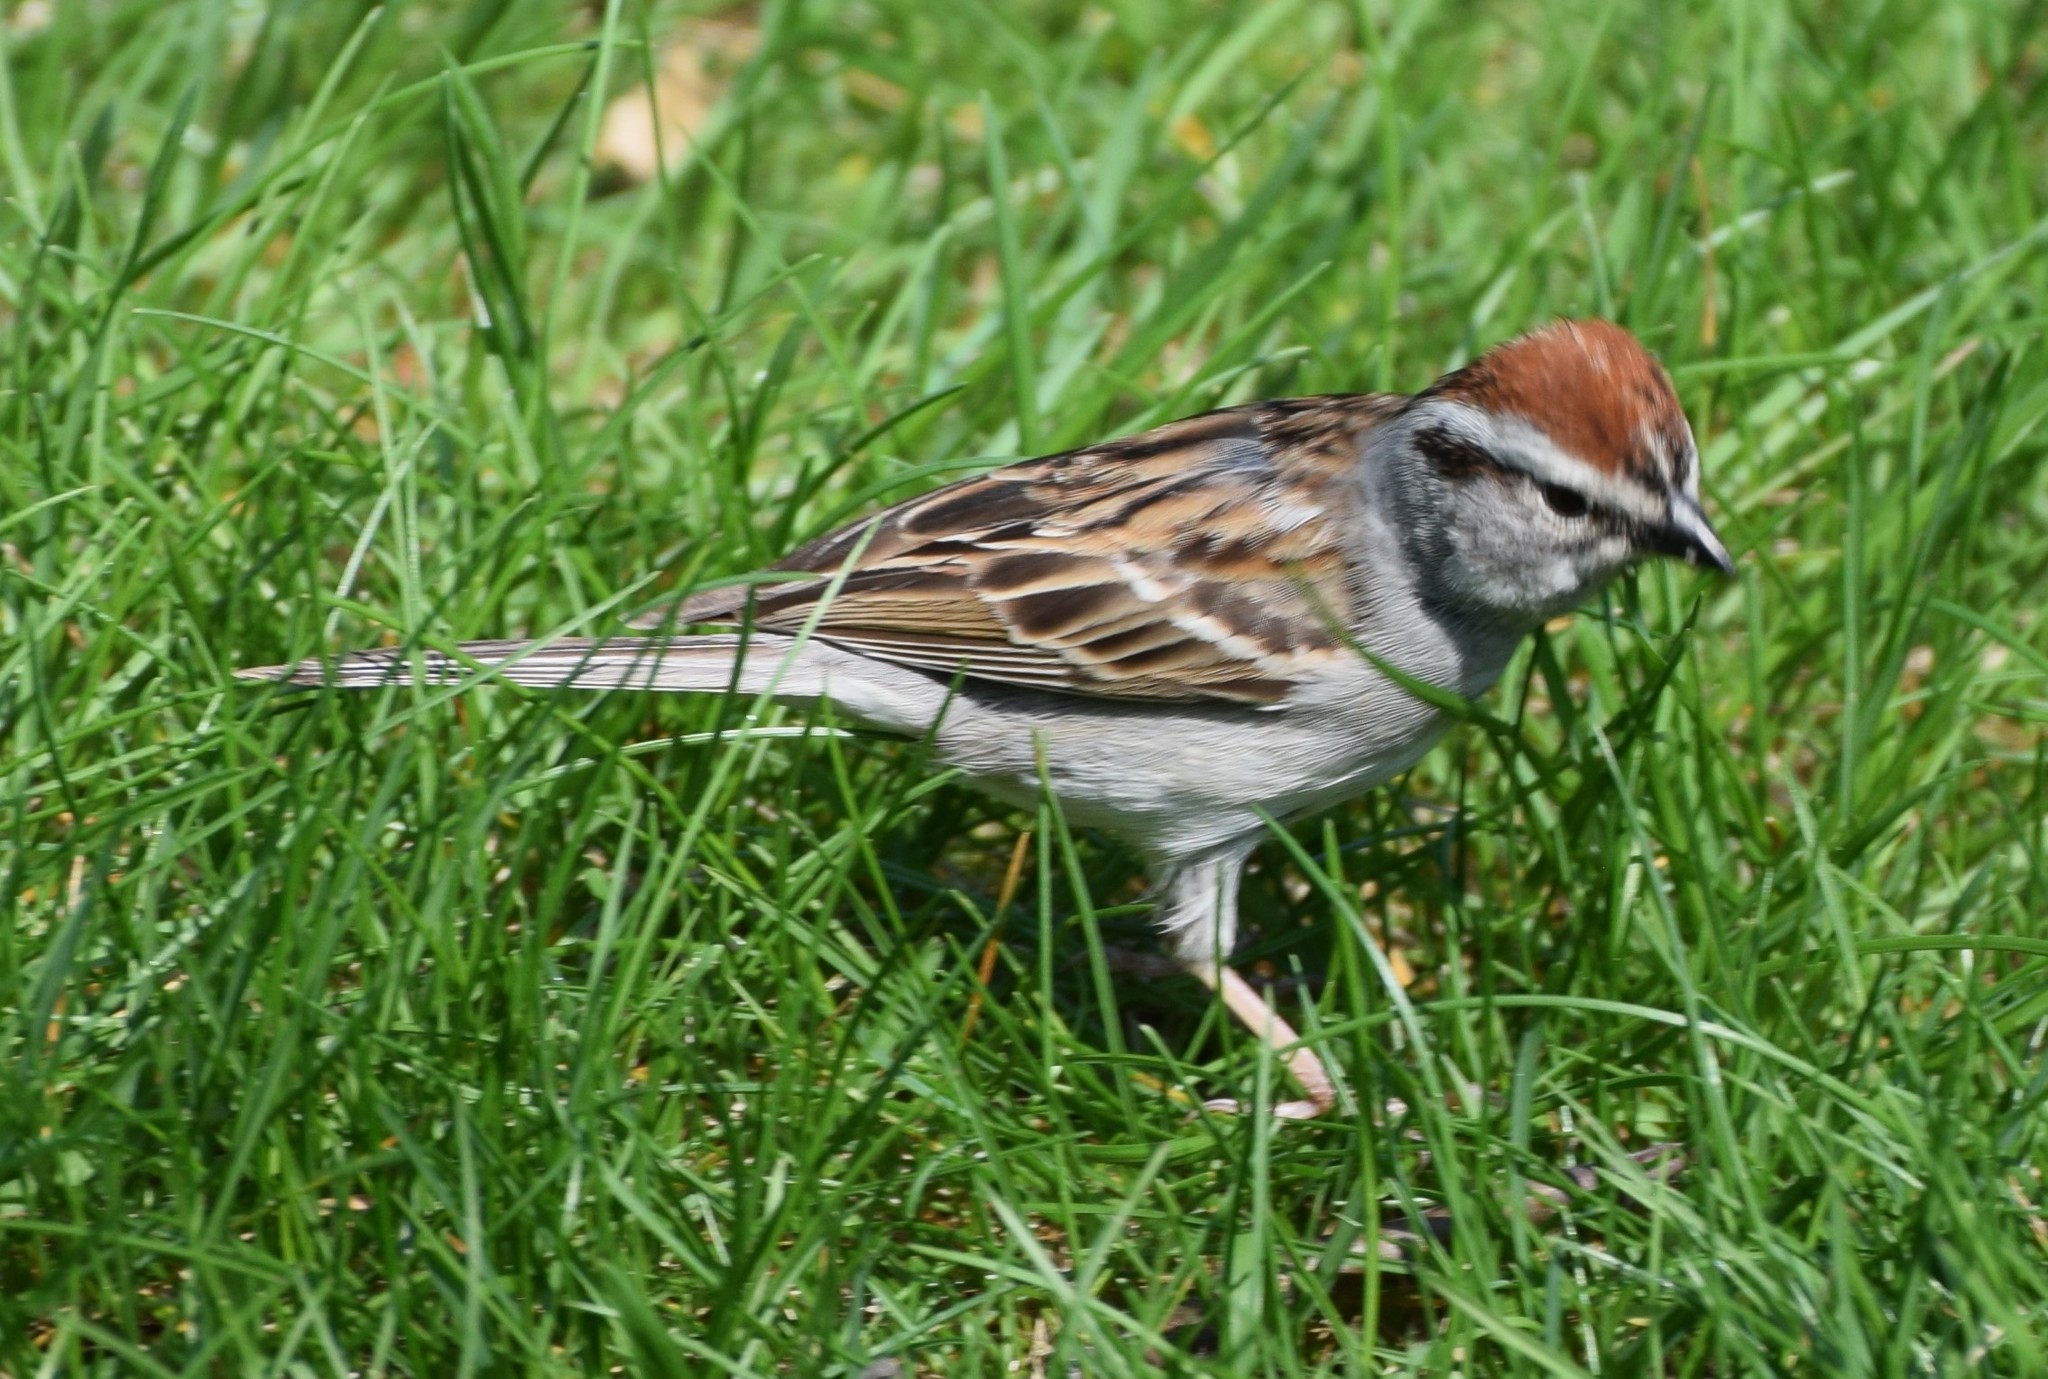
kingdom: Animalia
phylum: Chordata
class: Aves
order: Passeriformes
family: Passerellidae
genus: Spizella
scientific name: Spizella passerina
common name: Chipping sparrow
